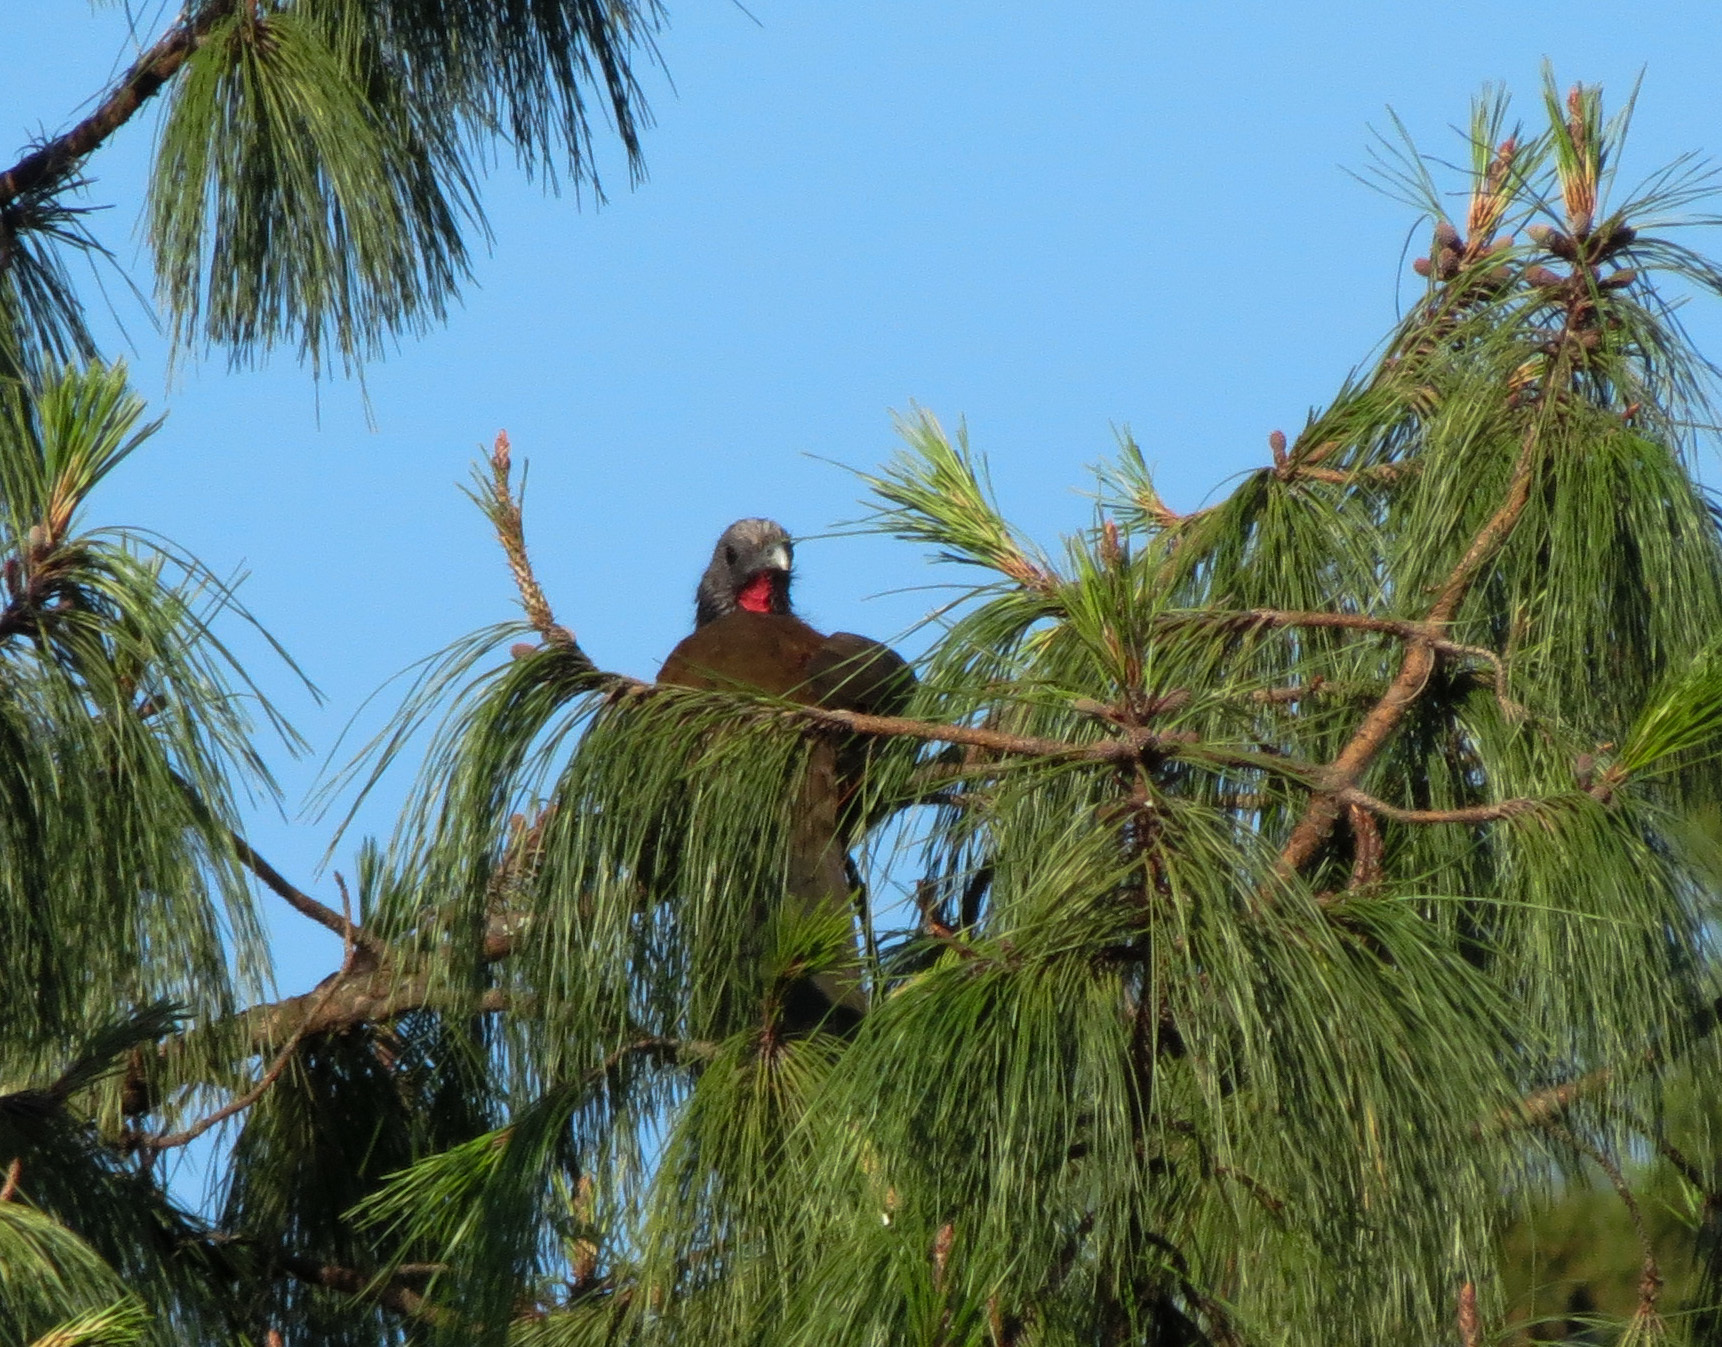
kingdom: Animalia
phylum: Chordata
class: Aves
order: Galliformes
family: Cracidae
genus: Ortalis
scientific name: Ortalis columbiana
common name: Colombian chachalaca
